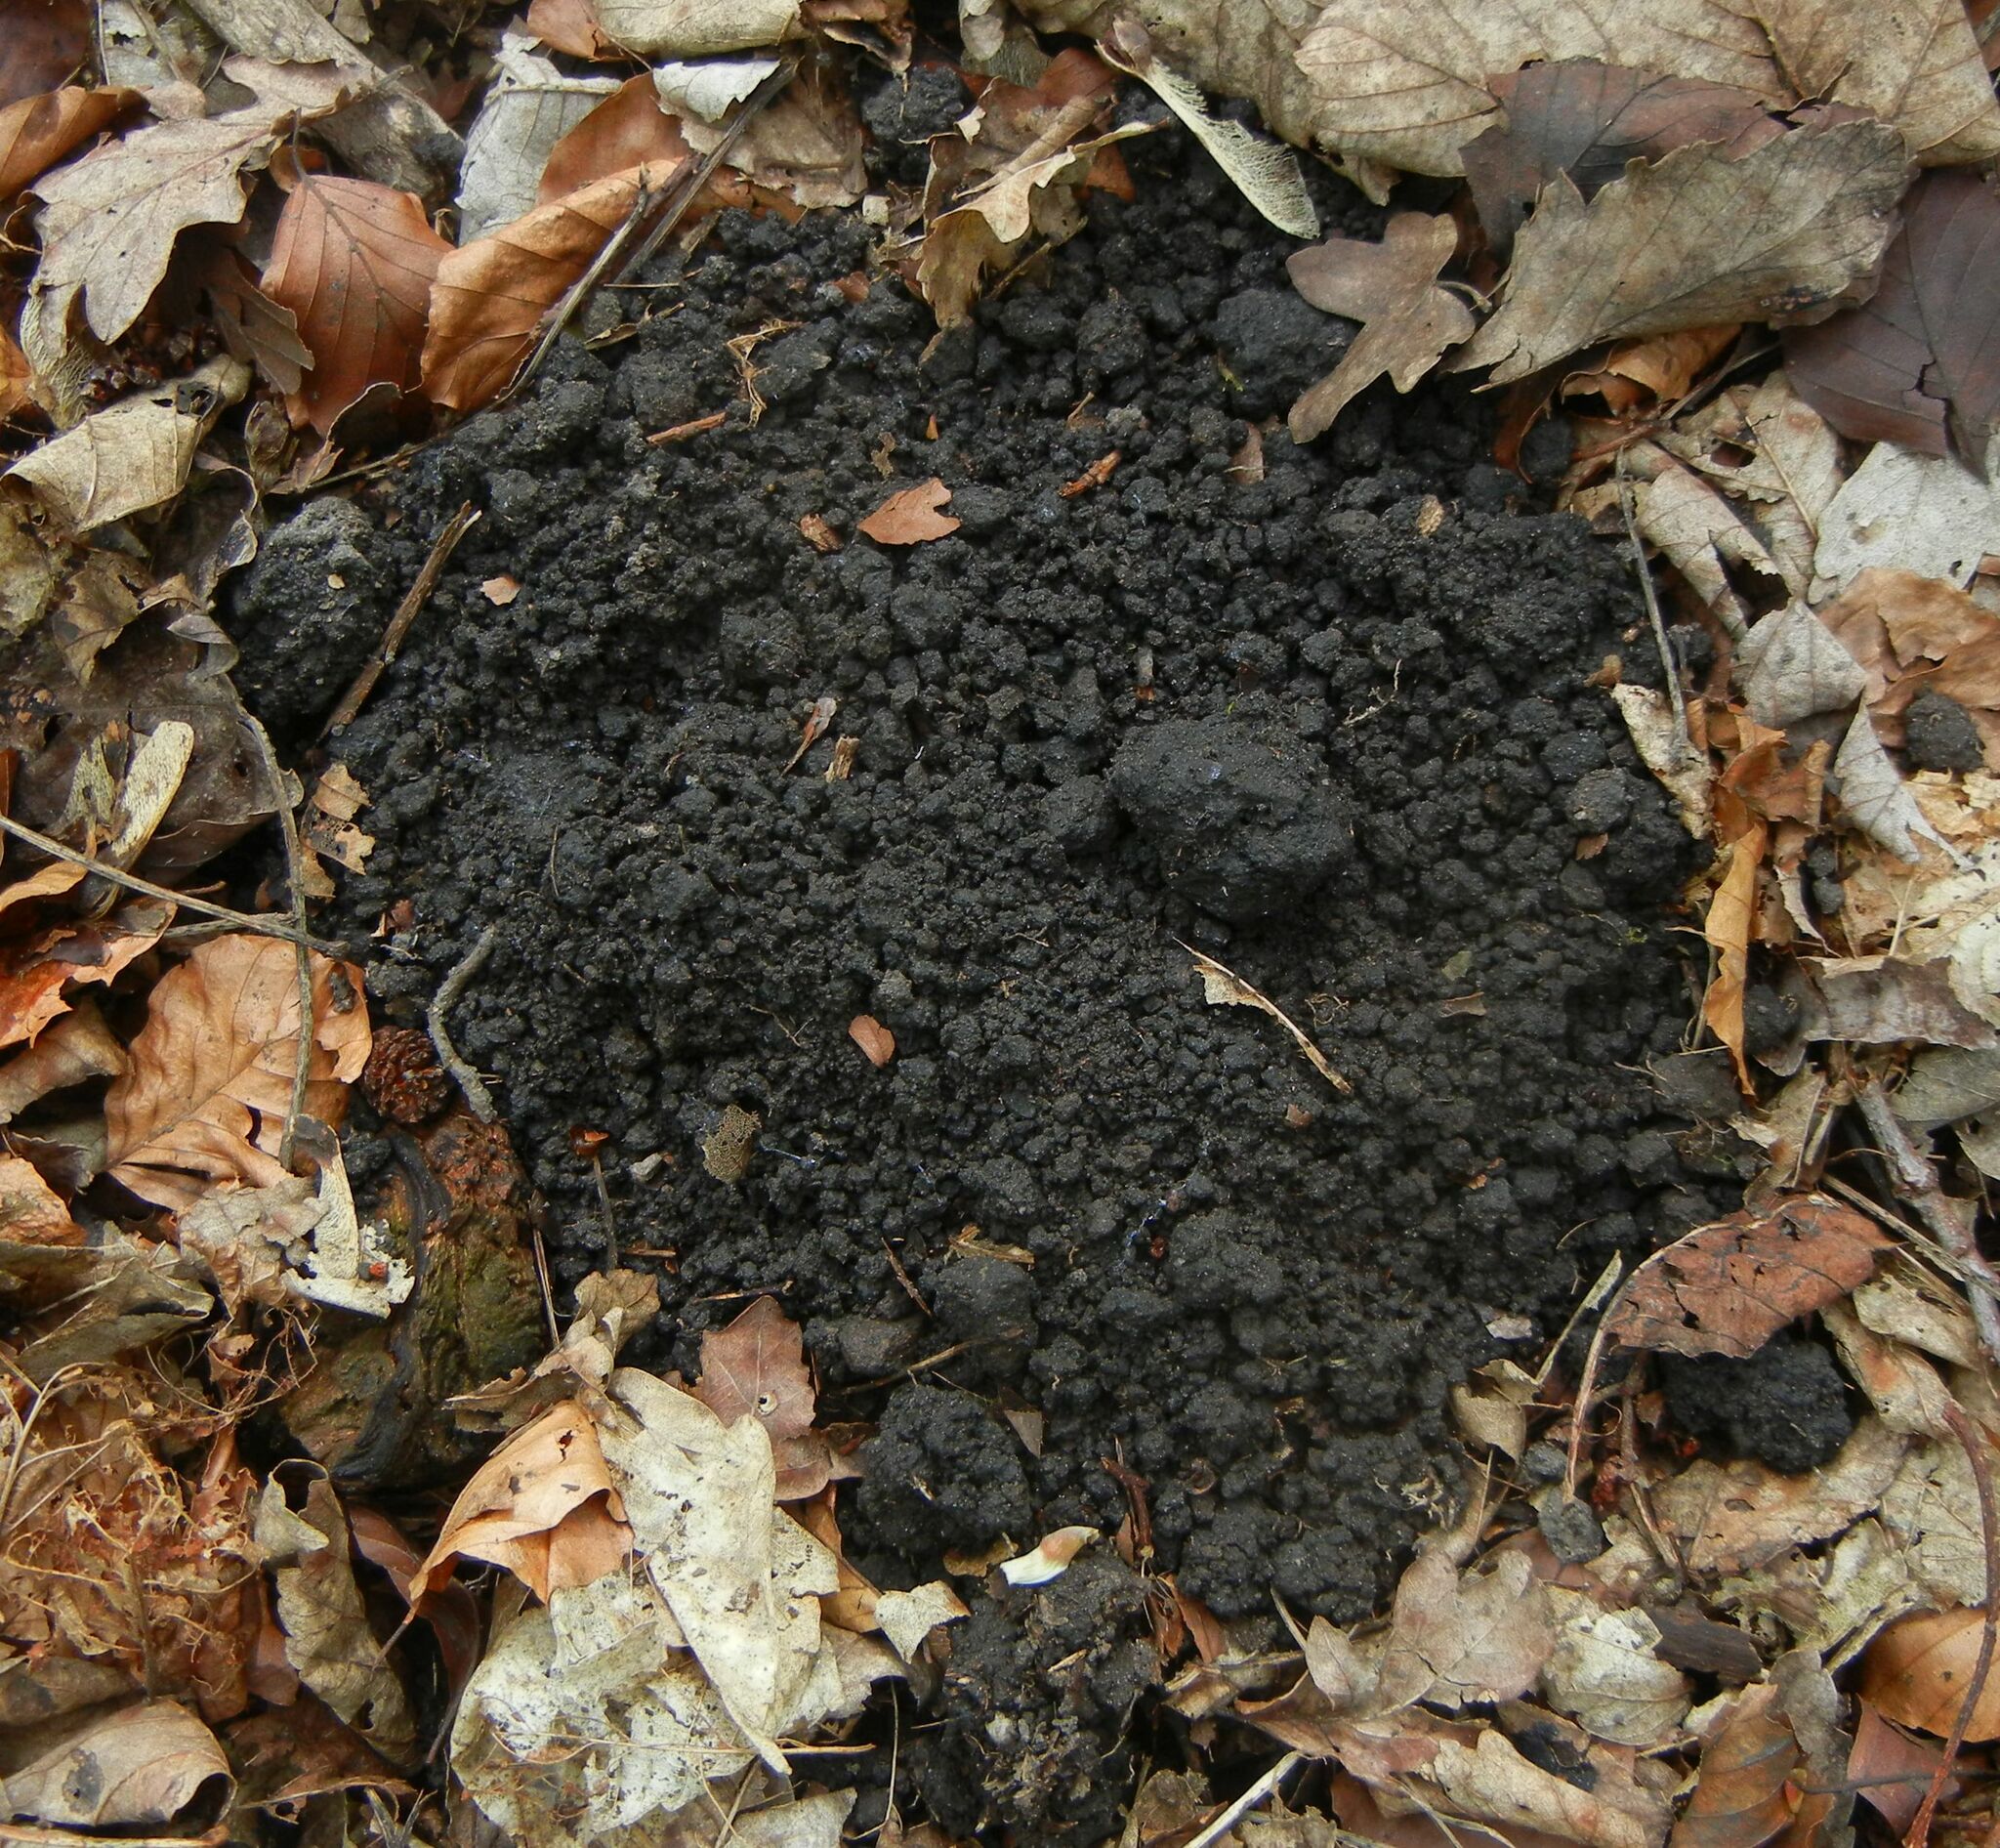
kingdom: Animalia
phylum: Chordata
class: Mammalia
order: Soricomorpha
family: Talpidae
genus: Talpa
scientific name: Talpa europaea
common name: European mole
